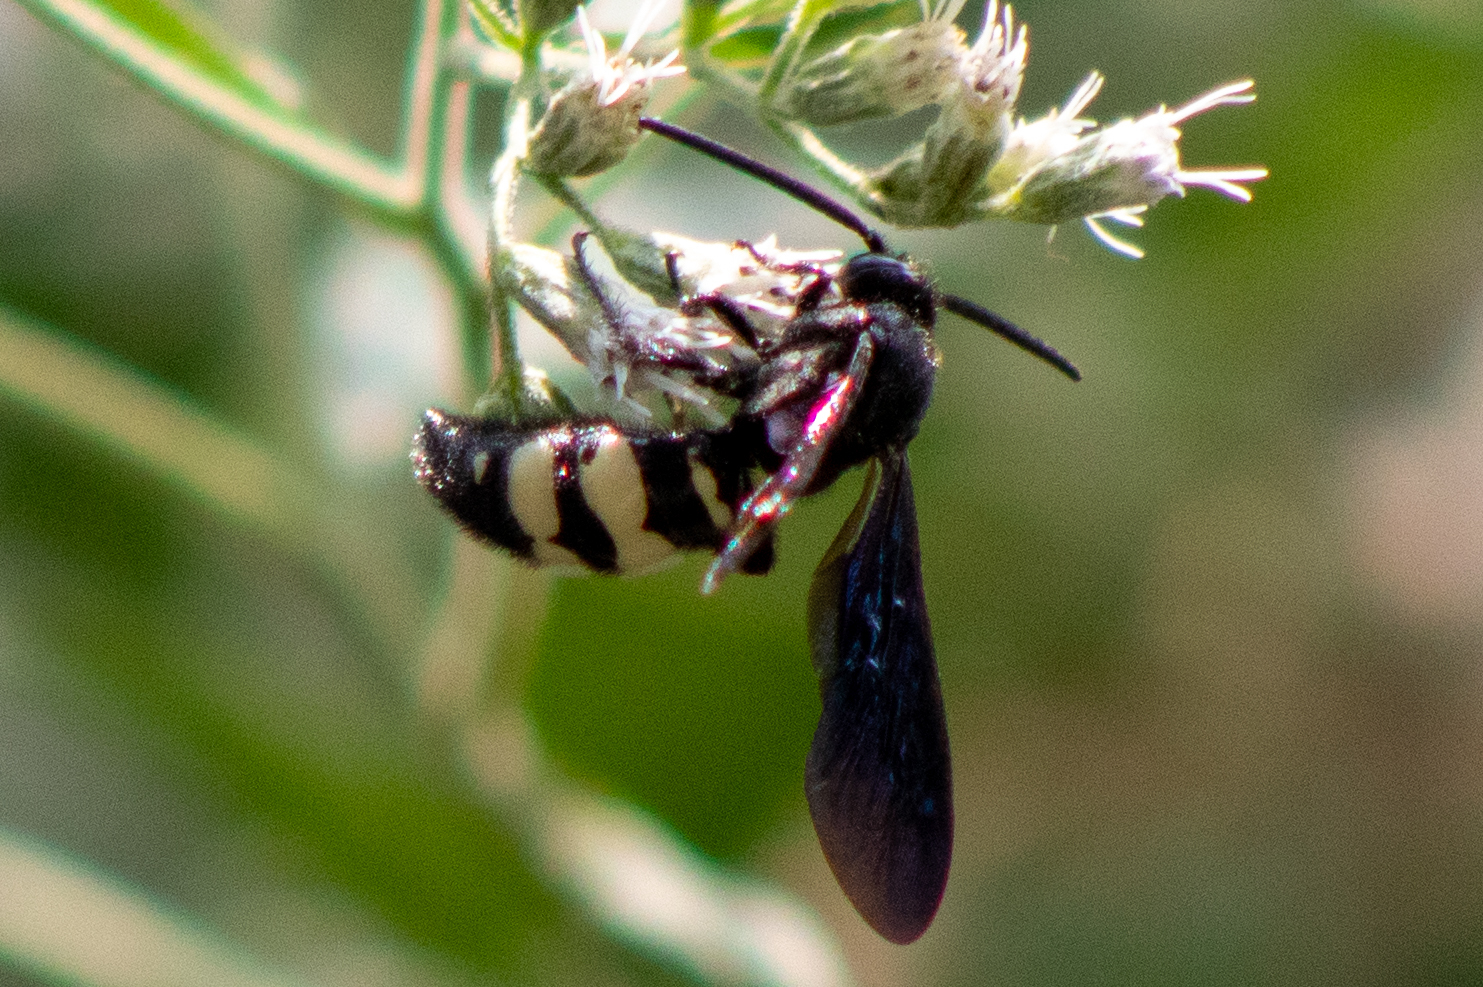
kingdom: Animalia
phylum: Arthropoda
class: Insecta
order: Hymenoptera
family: Scoliidae
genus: Scolia
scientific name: Scolia bicincta
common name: Double-banded scoliid wasp
